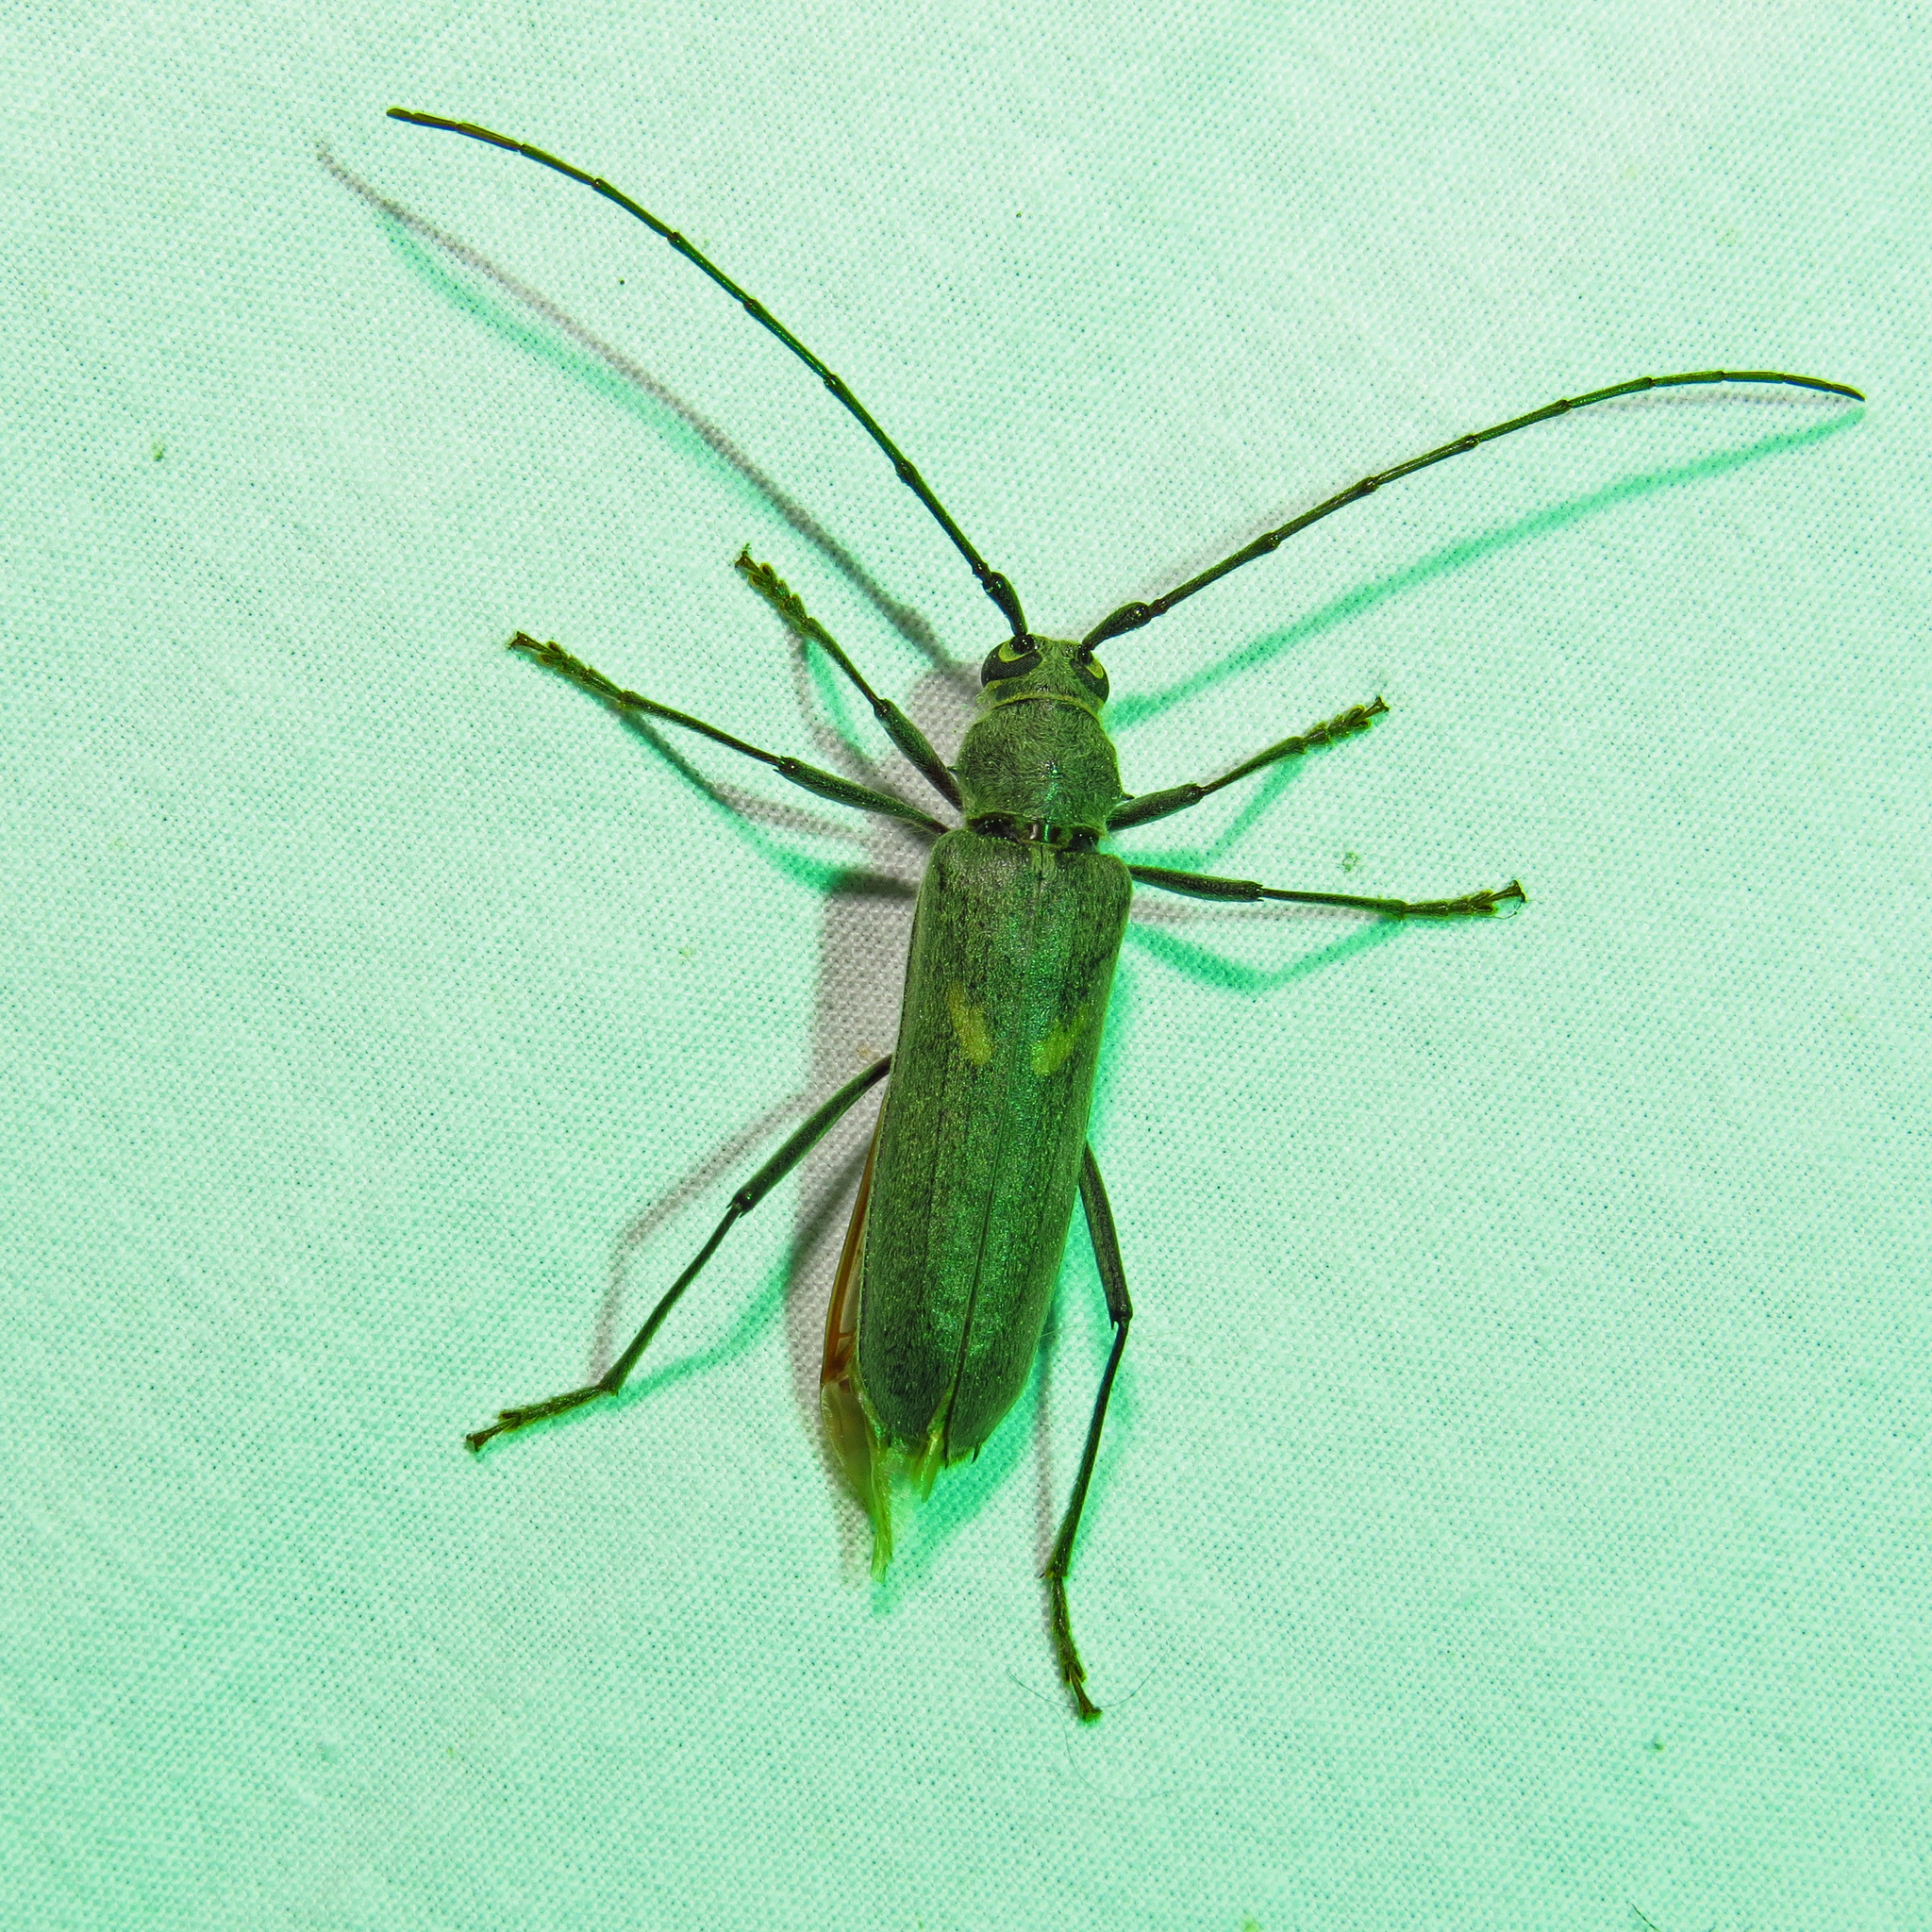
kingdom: Animalia
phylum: Arthropoda
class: Insecta
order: Coleoptera
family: Cerambycidae
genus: Knulliana
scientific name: Knulliana cincta
